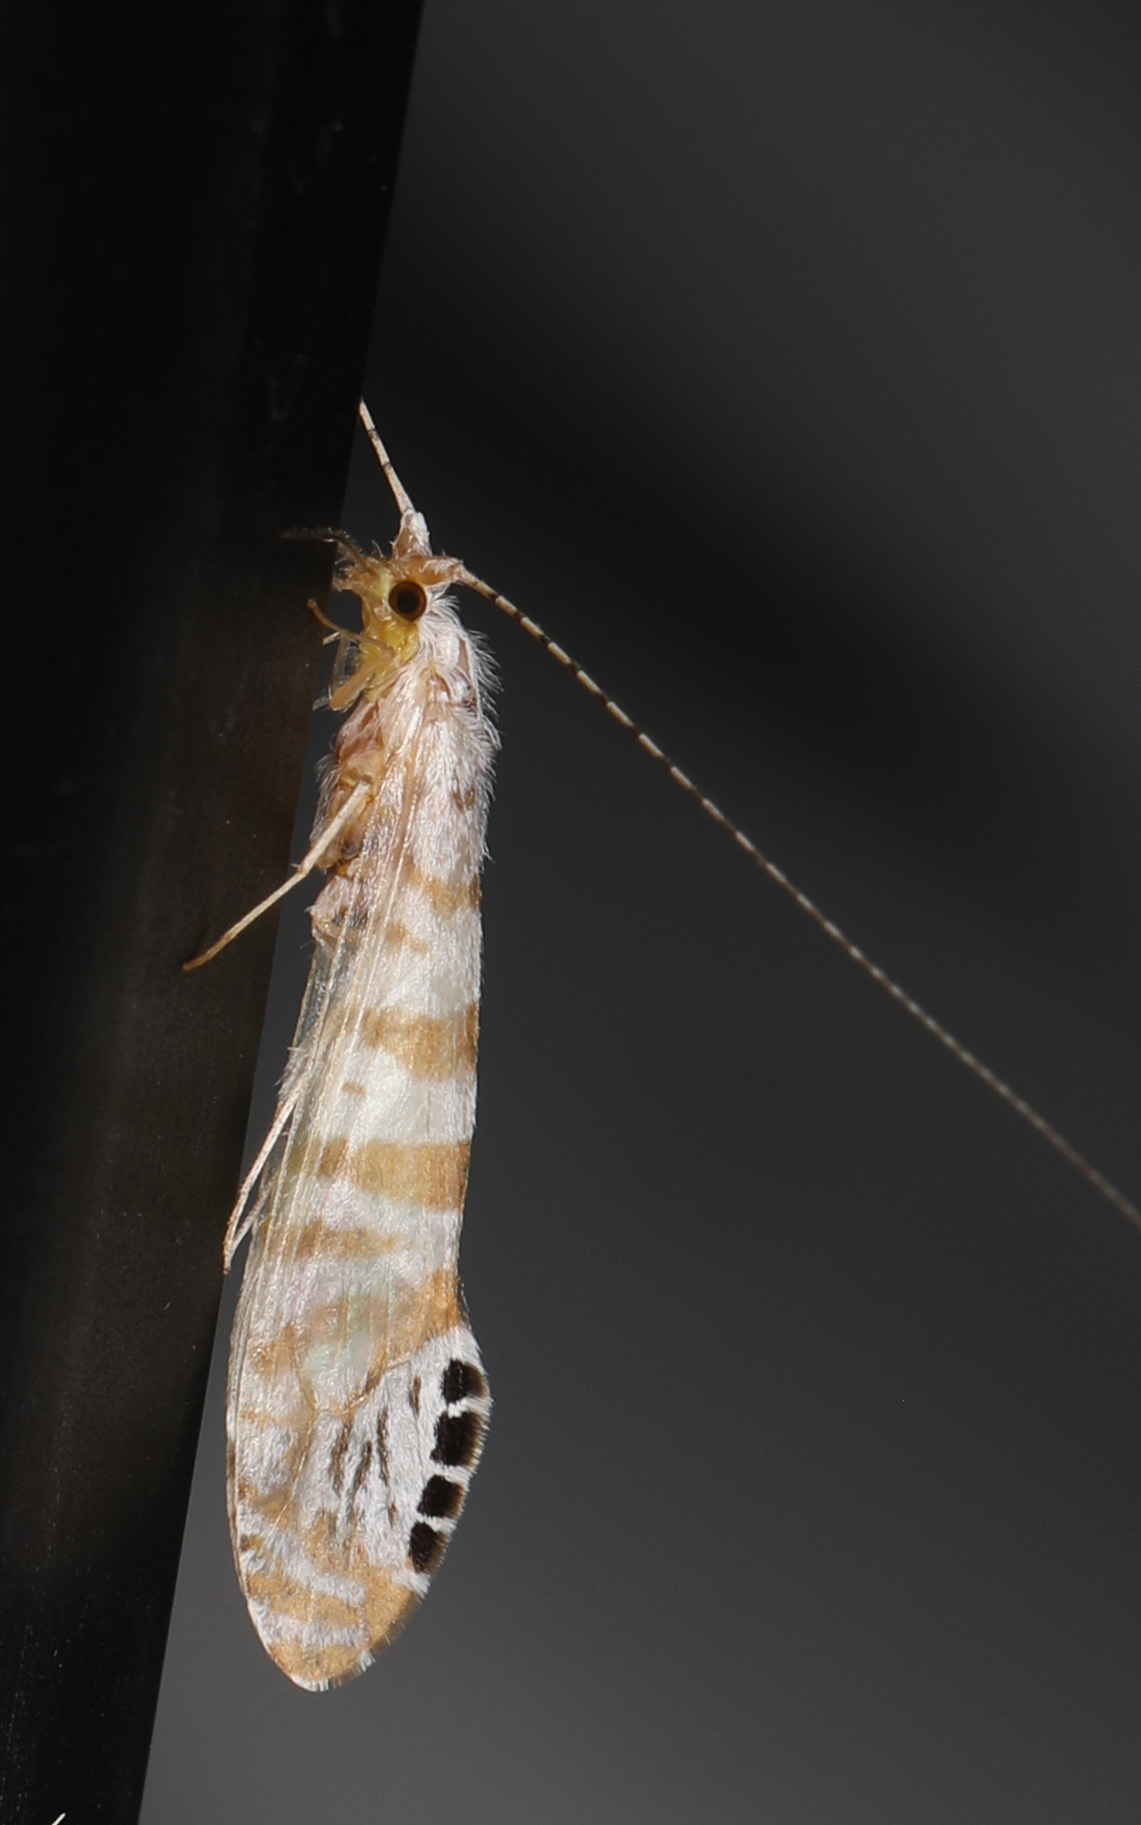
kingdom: Animalia
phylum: Arthropoda
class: Insecta
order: Trichoptera
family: Leptoceridae
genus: Nectopsyche
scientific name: Nectopsyche exquisita
